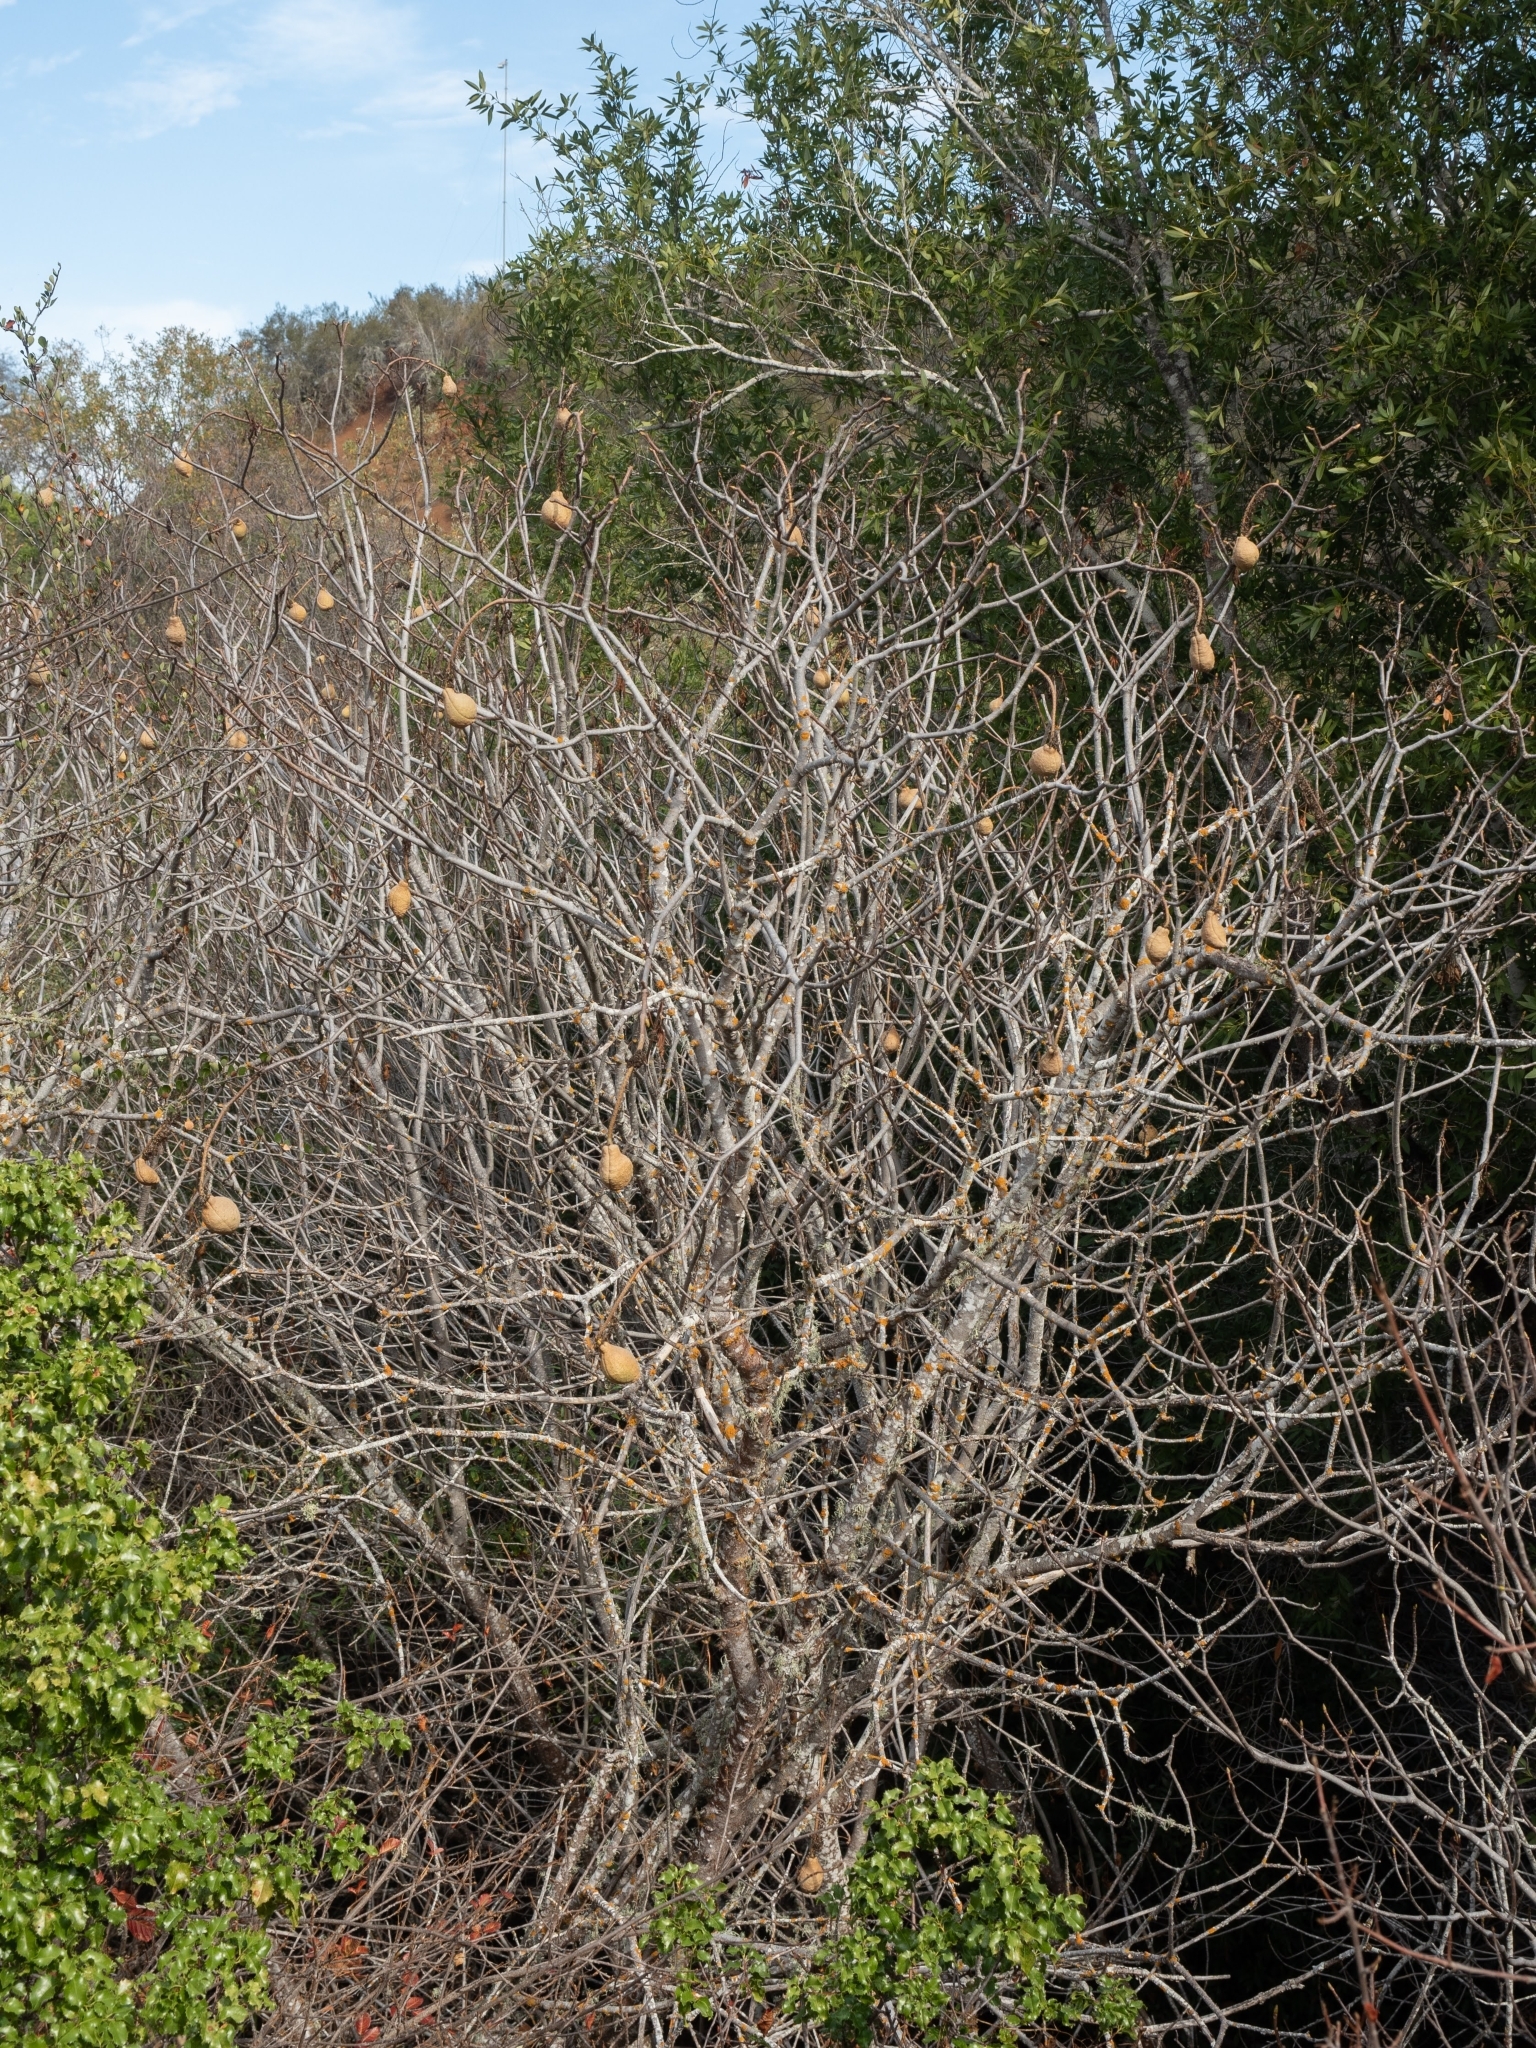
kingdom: Plantae
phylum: Tracheophyta
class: Magnoliopsida
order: Sapindales
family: Sapindaceae
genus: Aesculus
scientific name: Aesculus californica
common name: California buckeye
